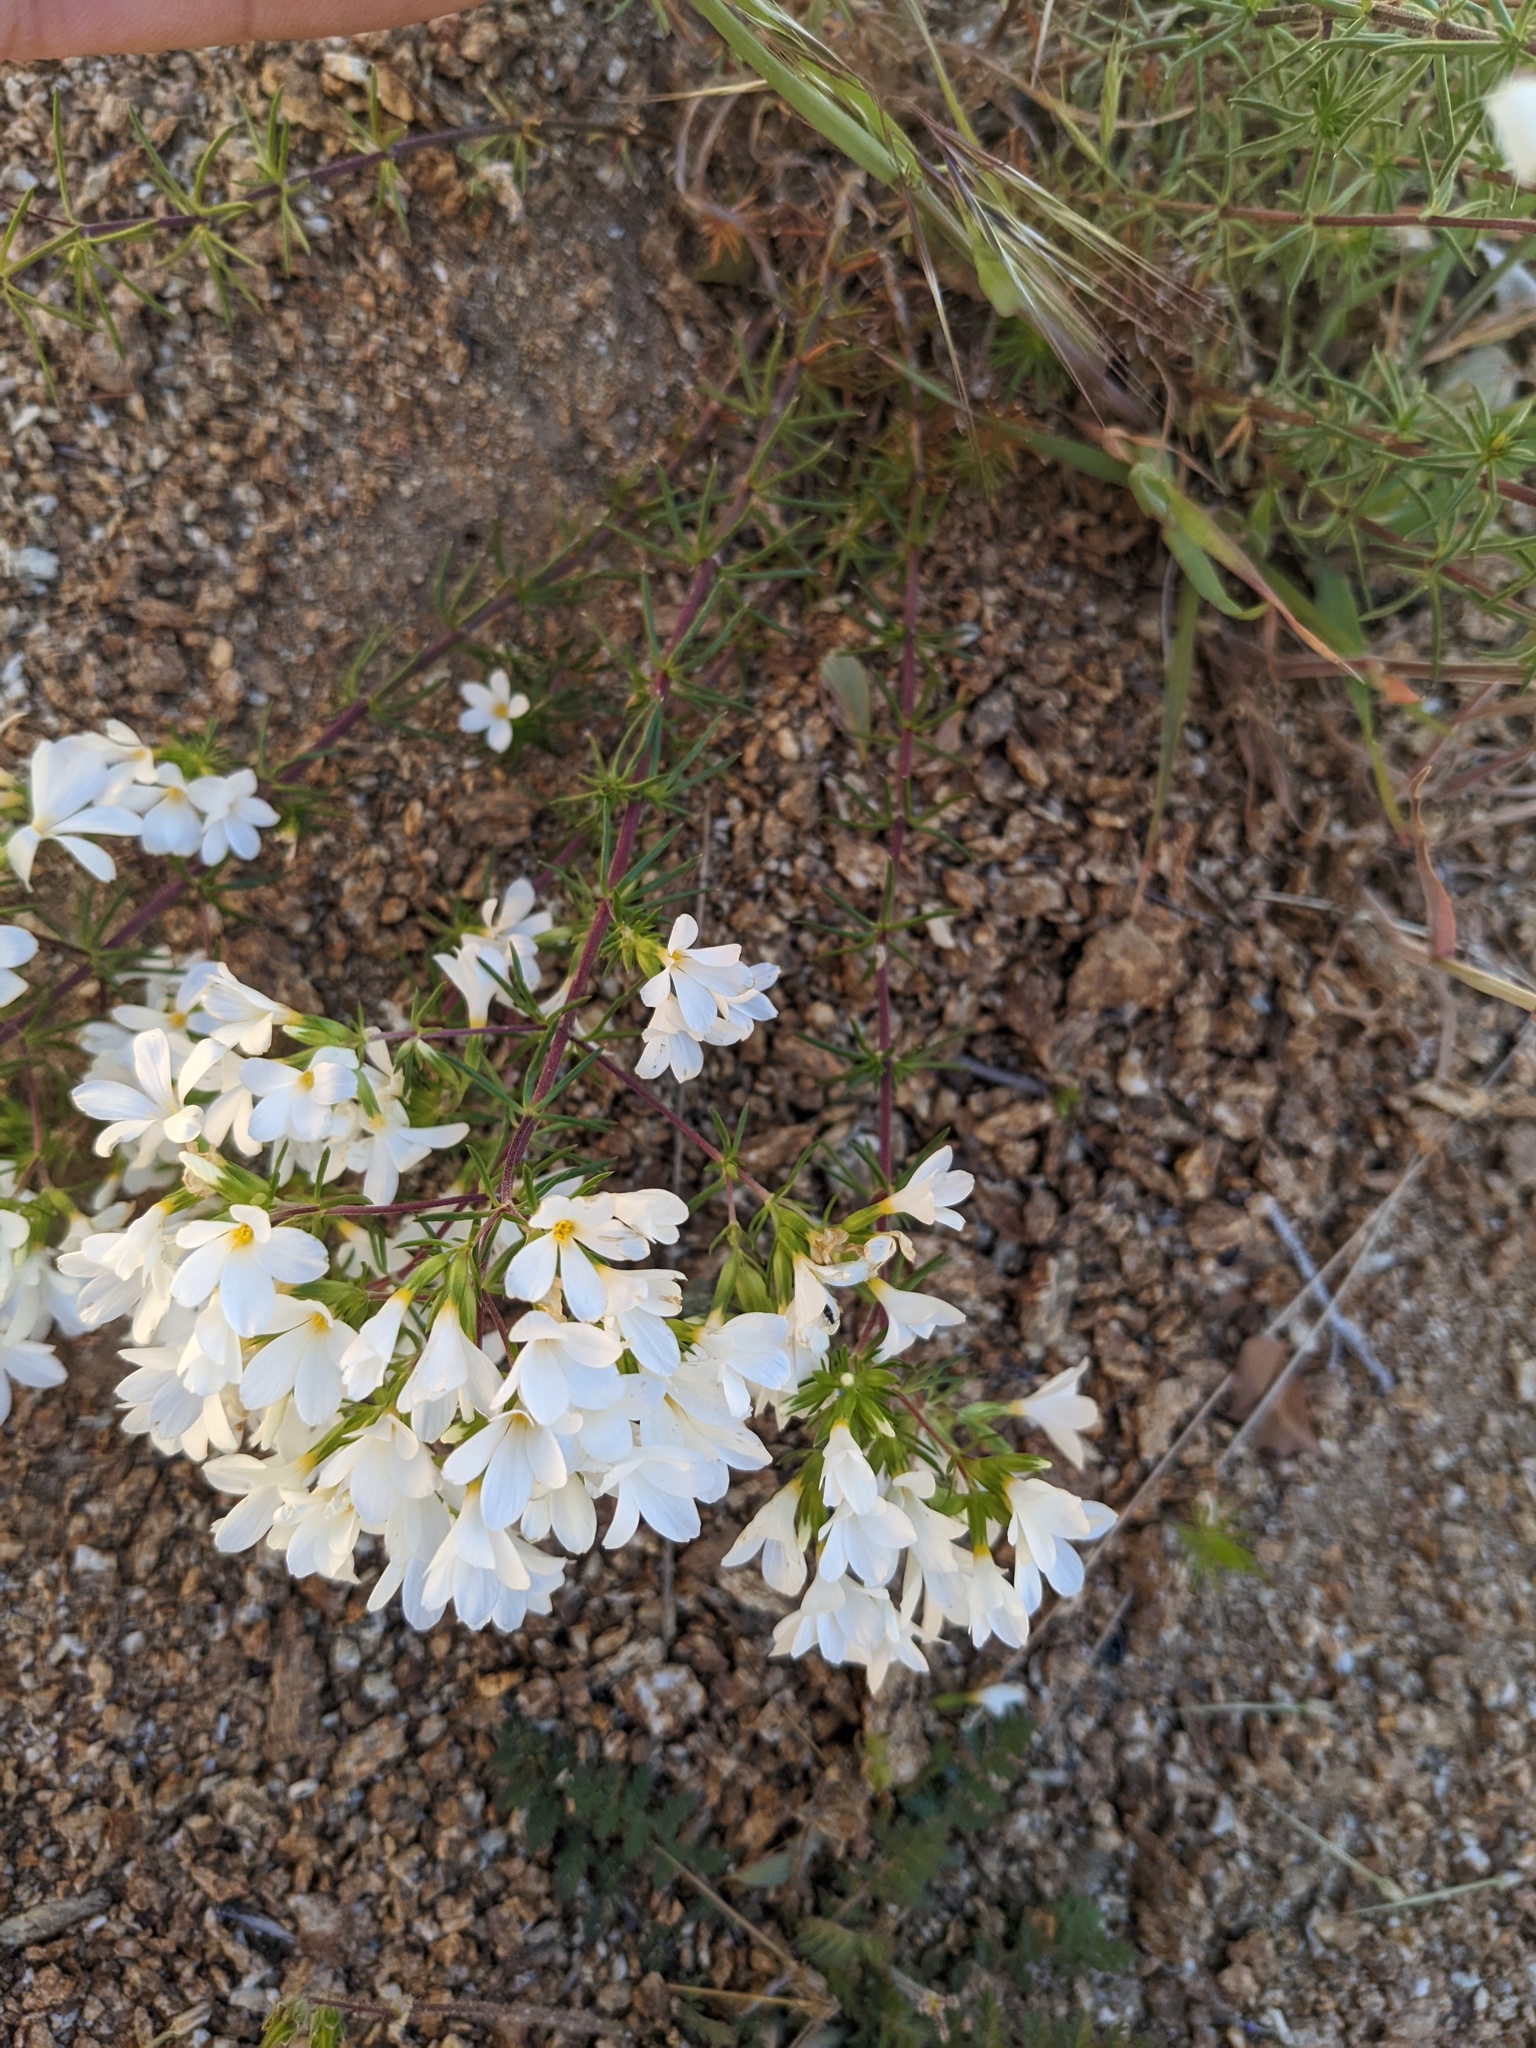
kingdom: Plantae
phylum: Tracheophyta
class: Magnoliopsida
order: Ericales
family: Polemoniaceae
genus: Leptosiphon
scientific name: Leptosiphon floribundum
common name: Many-flower linanthus
